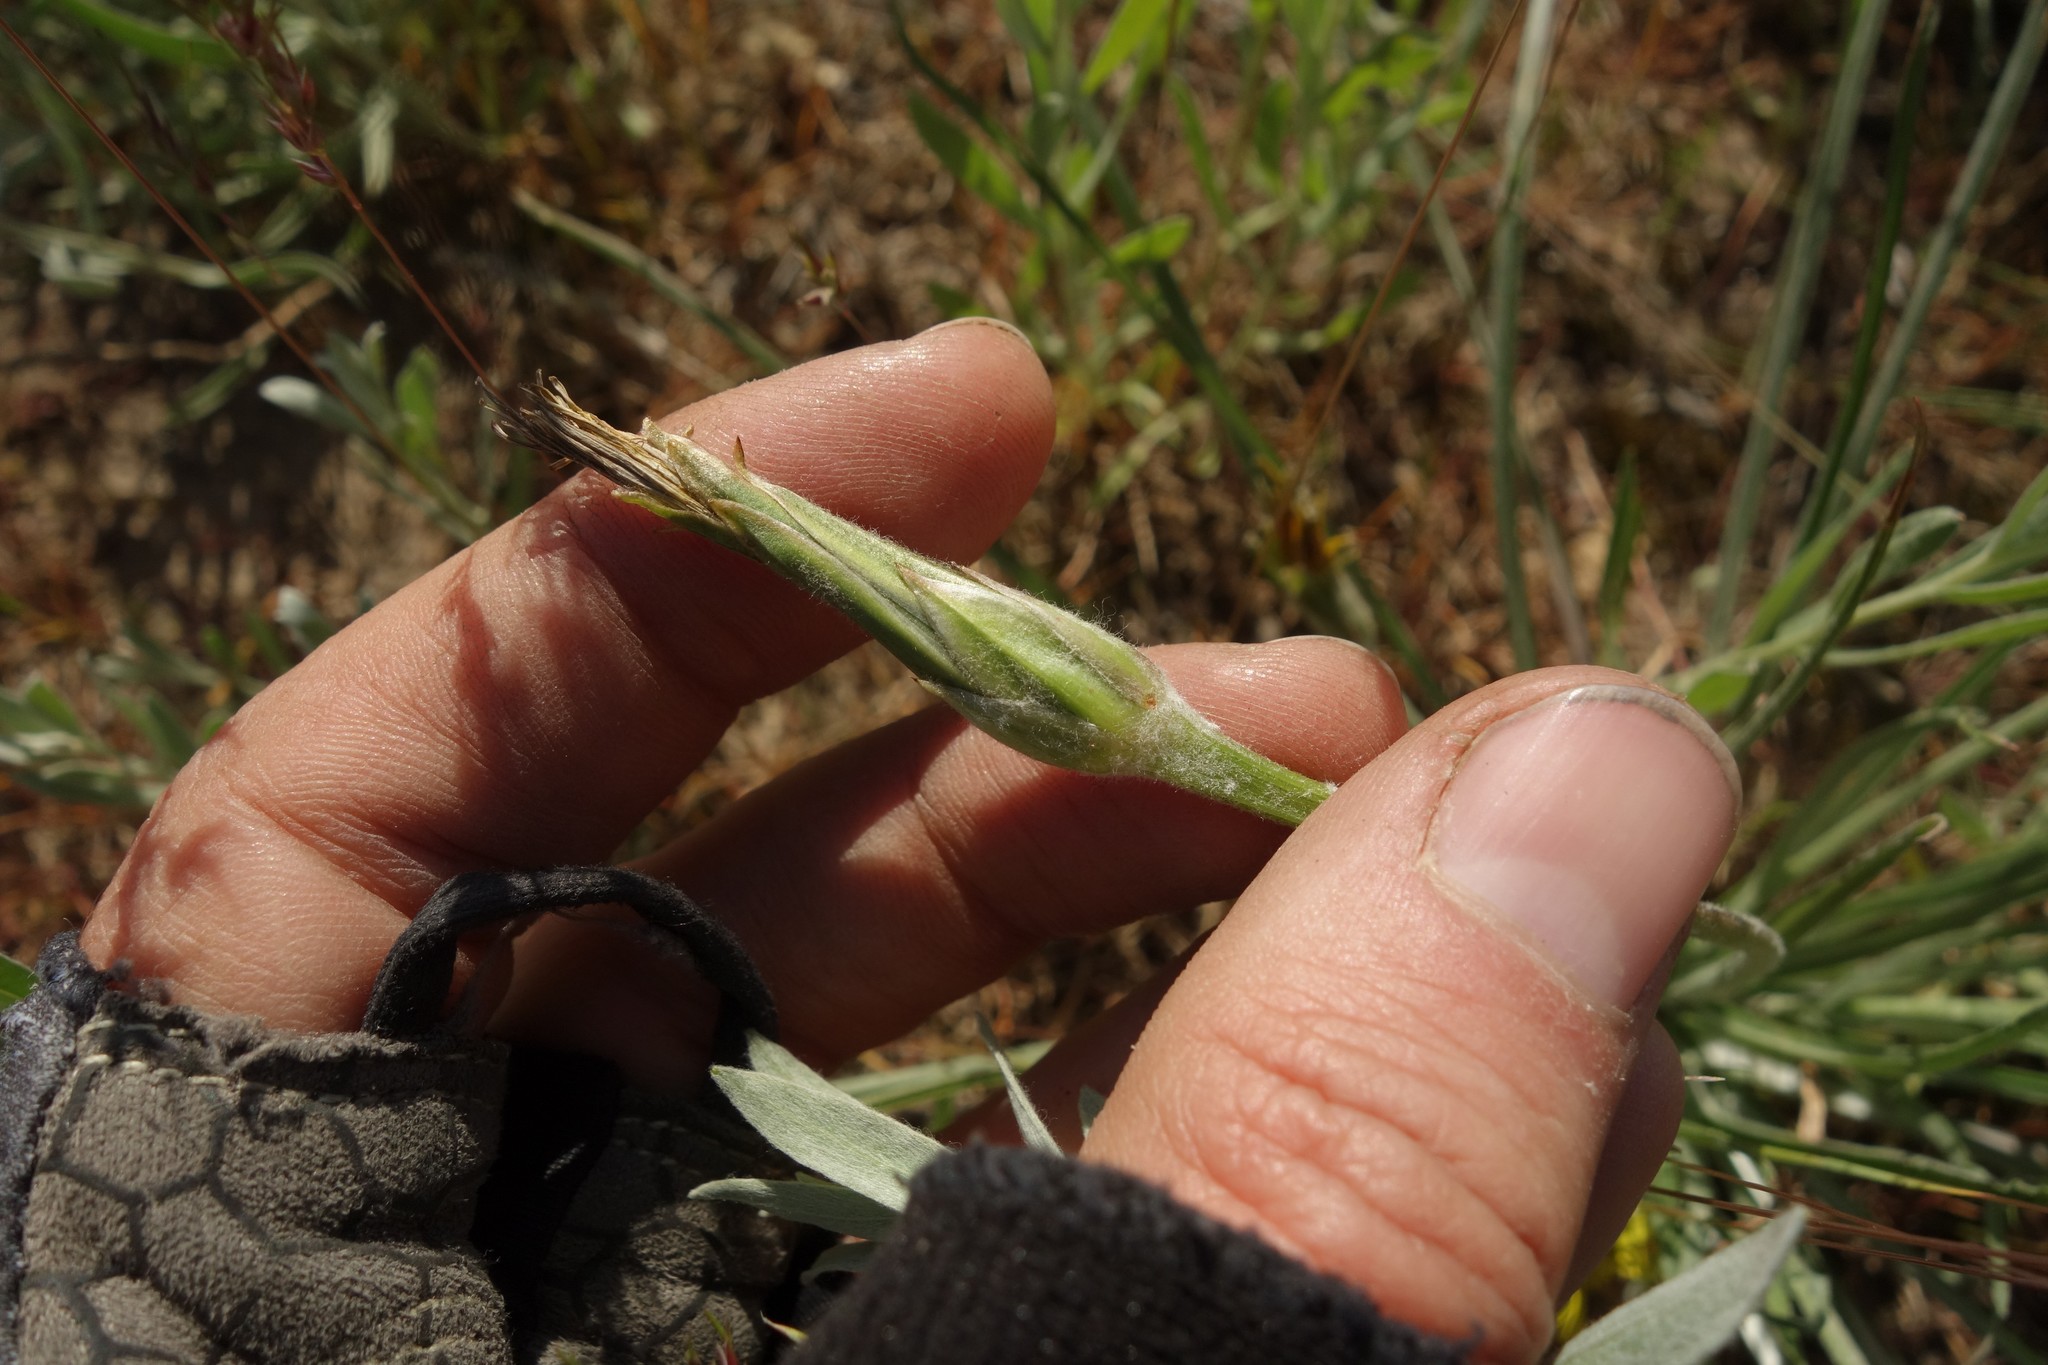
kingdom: Plantae
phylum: Tracheophyta
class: Magnoliopsida
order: Asterales
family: Asteraceae
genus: Candollea
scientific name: Candollea mollis
